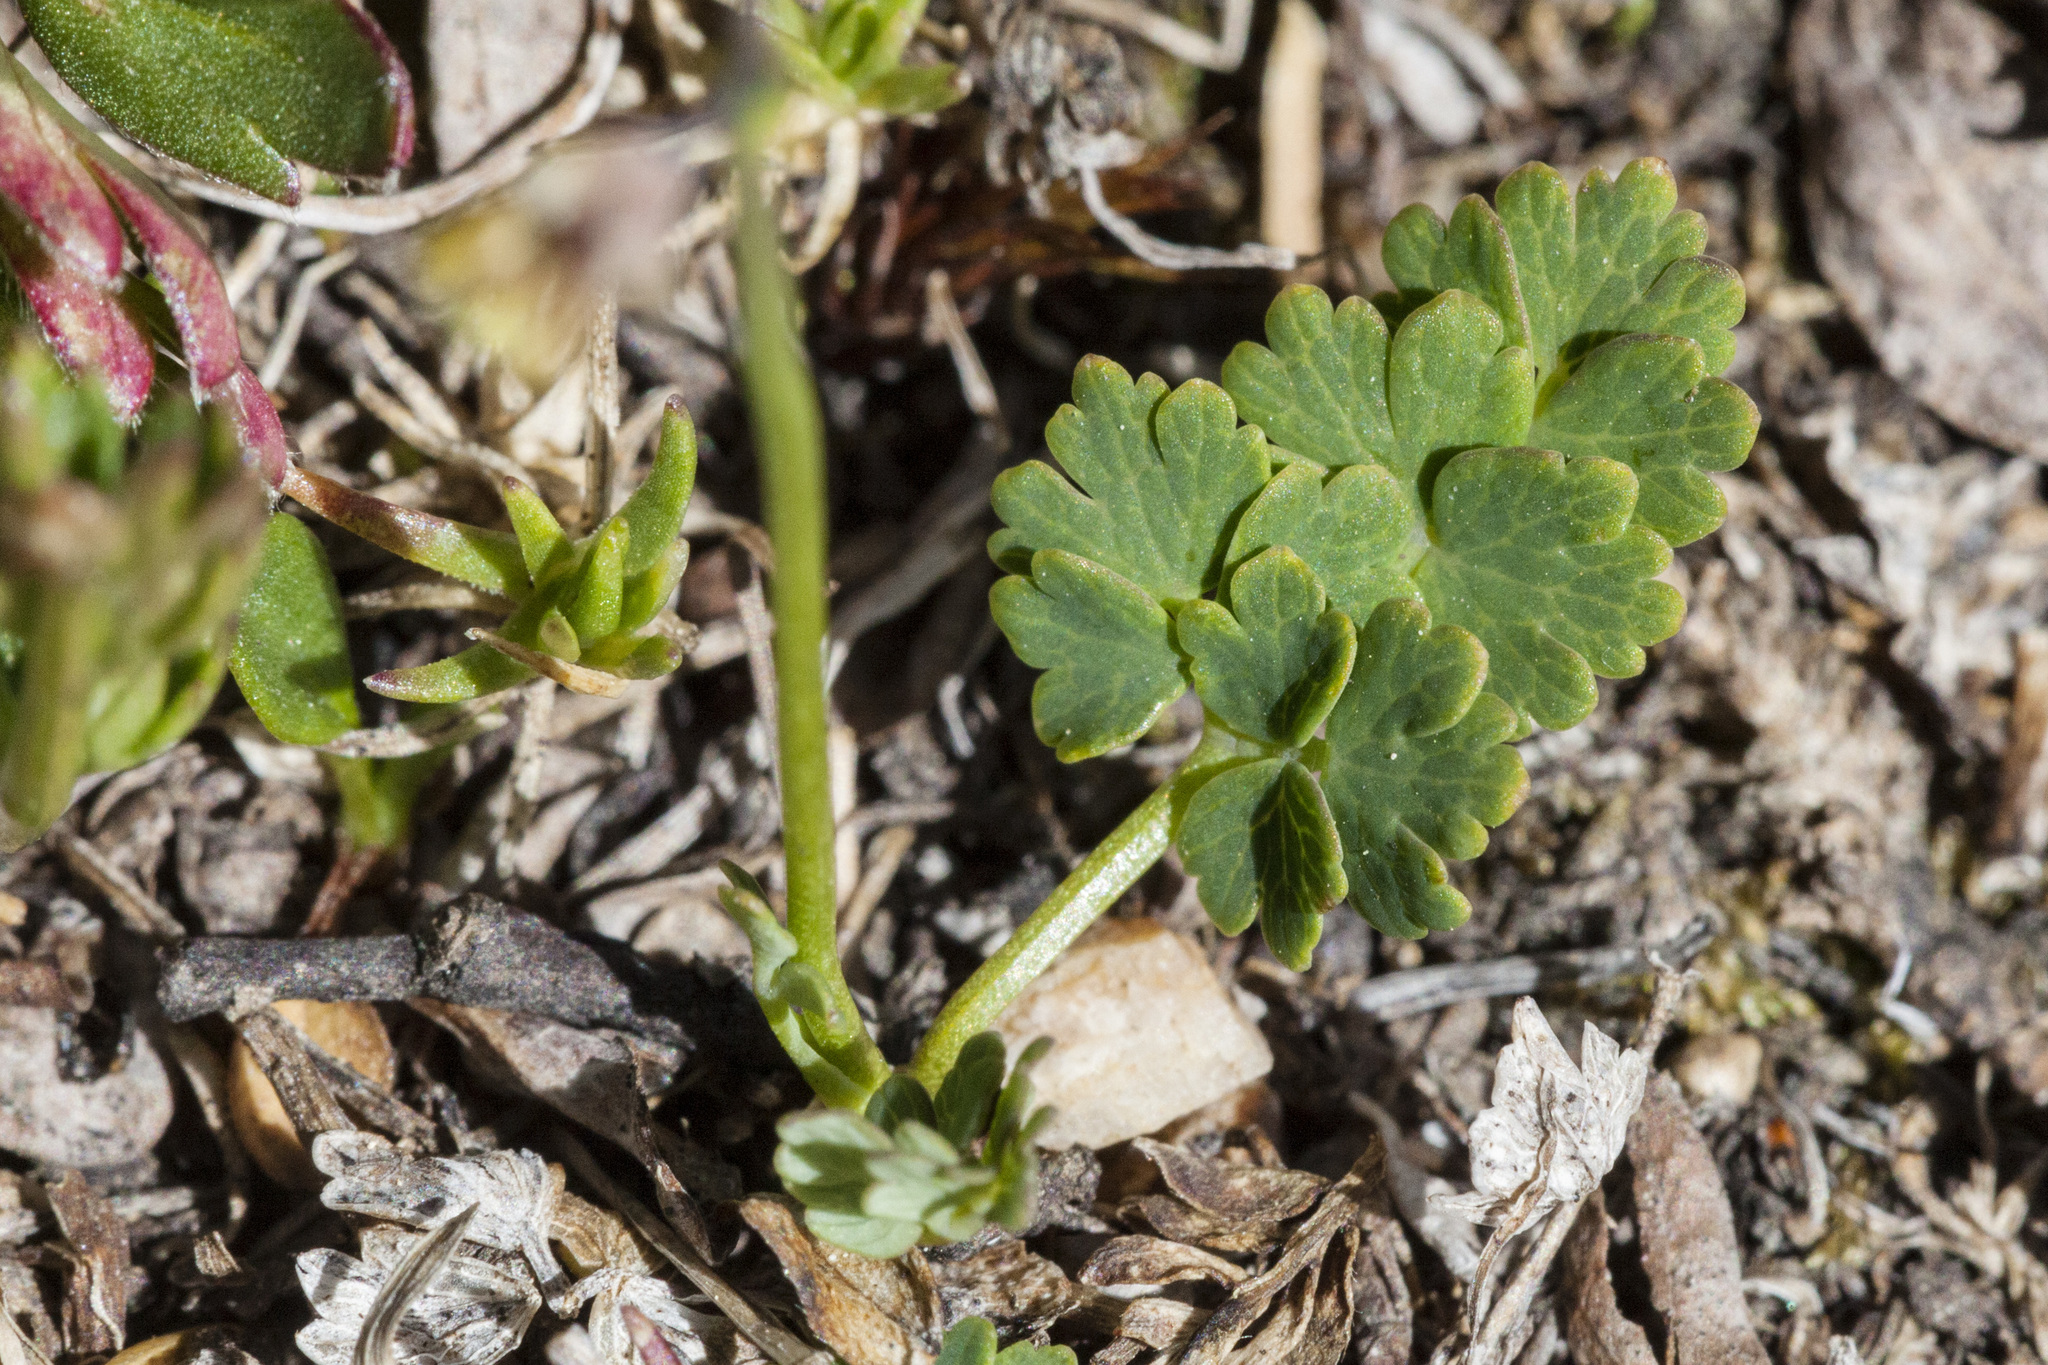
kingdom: Plantae
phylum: Tracheophyta
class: Magnoliopsida
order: Ranunculales
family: Ranunculaceae
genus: Thalictrum
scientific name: Thalictrum alpinum
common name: Alpine meadow-rue
